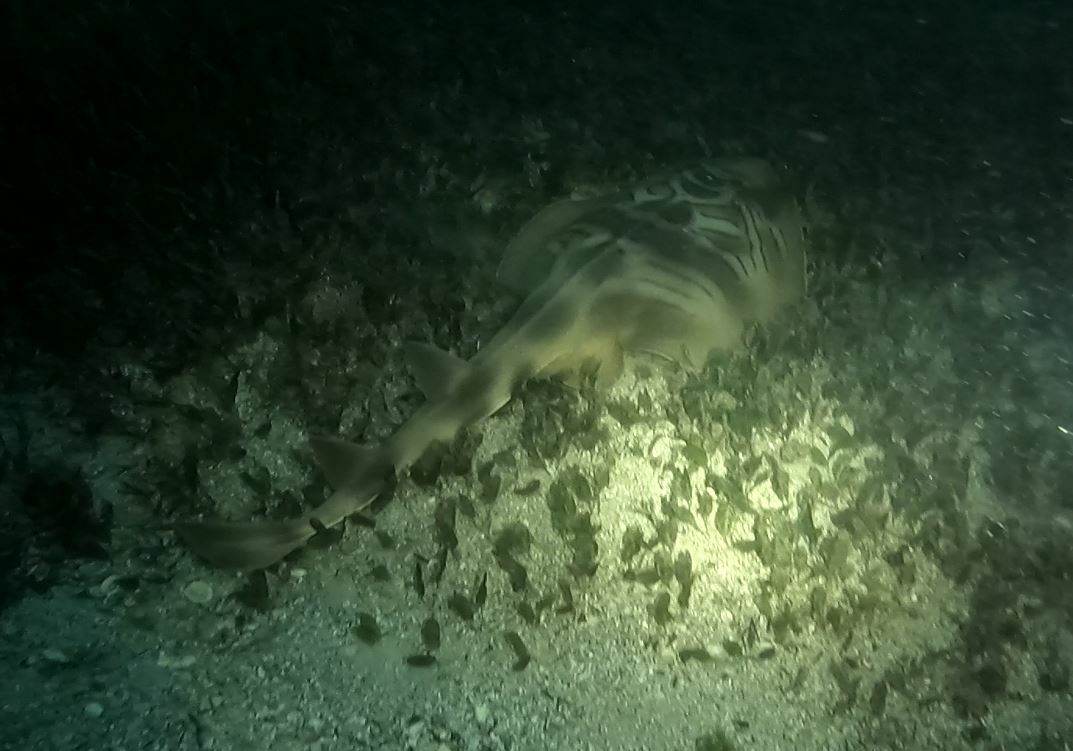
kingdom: Animalia
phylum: Chordata
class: Elasmobranchii
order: Rhinopristiformes
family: Rhinobatidae
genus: Trygonorrhina
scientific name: Trygonorrhina fasciata
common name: Southern fiddler
